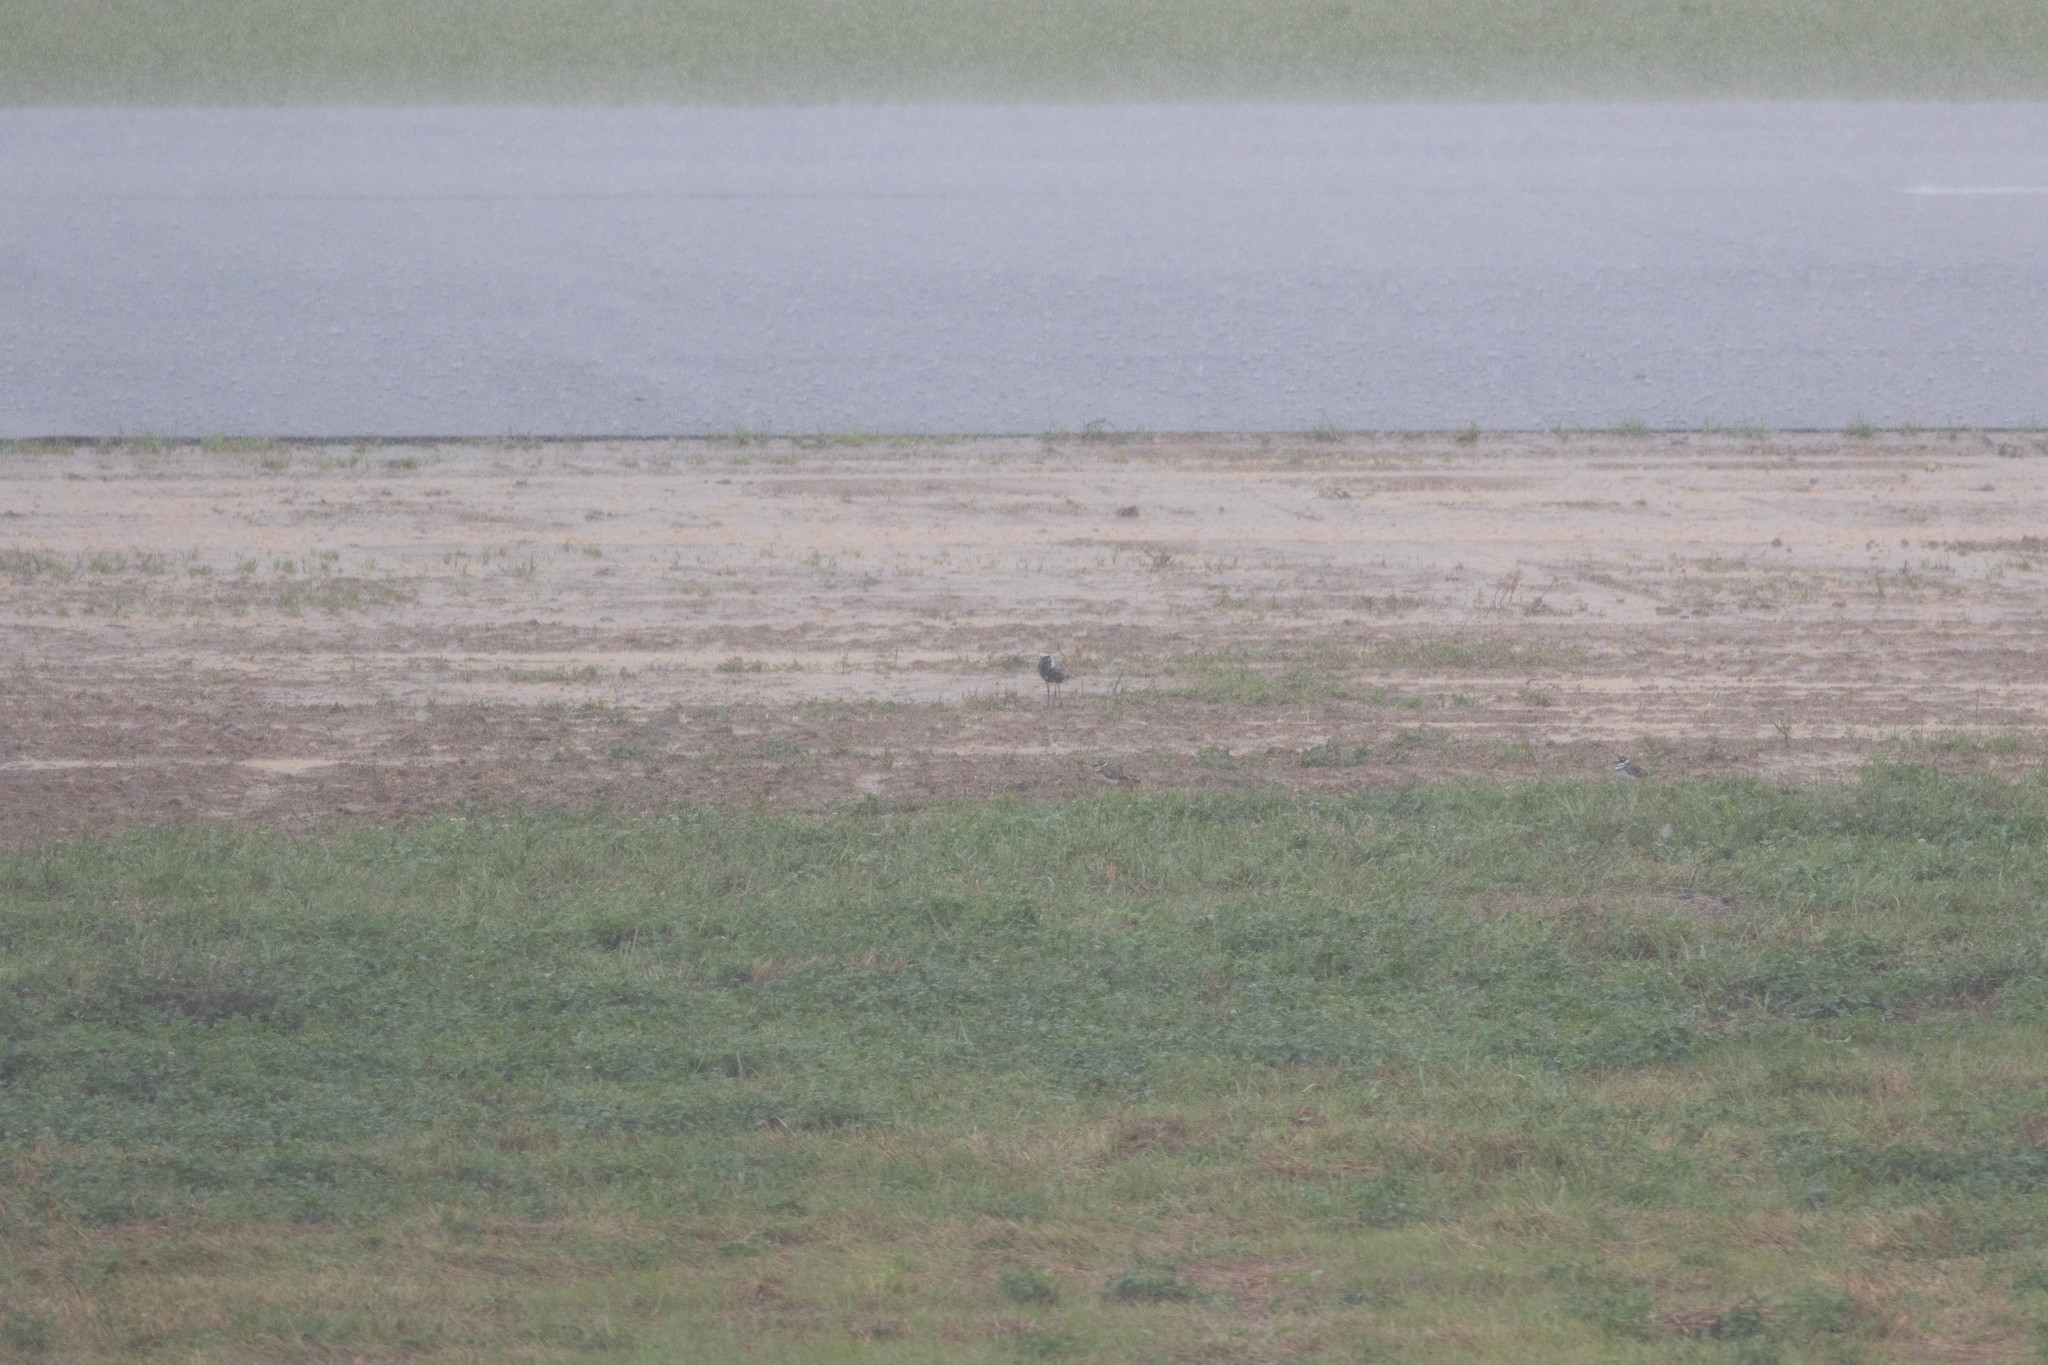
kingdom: Animalia
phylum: Chordata
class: Aves
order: Charadriiformes
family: Charadriidae
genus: Pluvialis
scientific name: Pluvialis squatarola
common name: Grey plover
